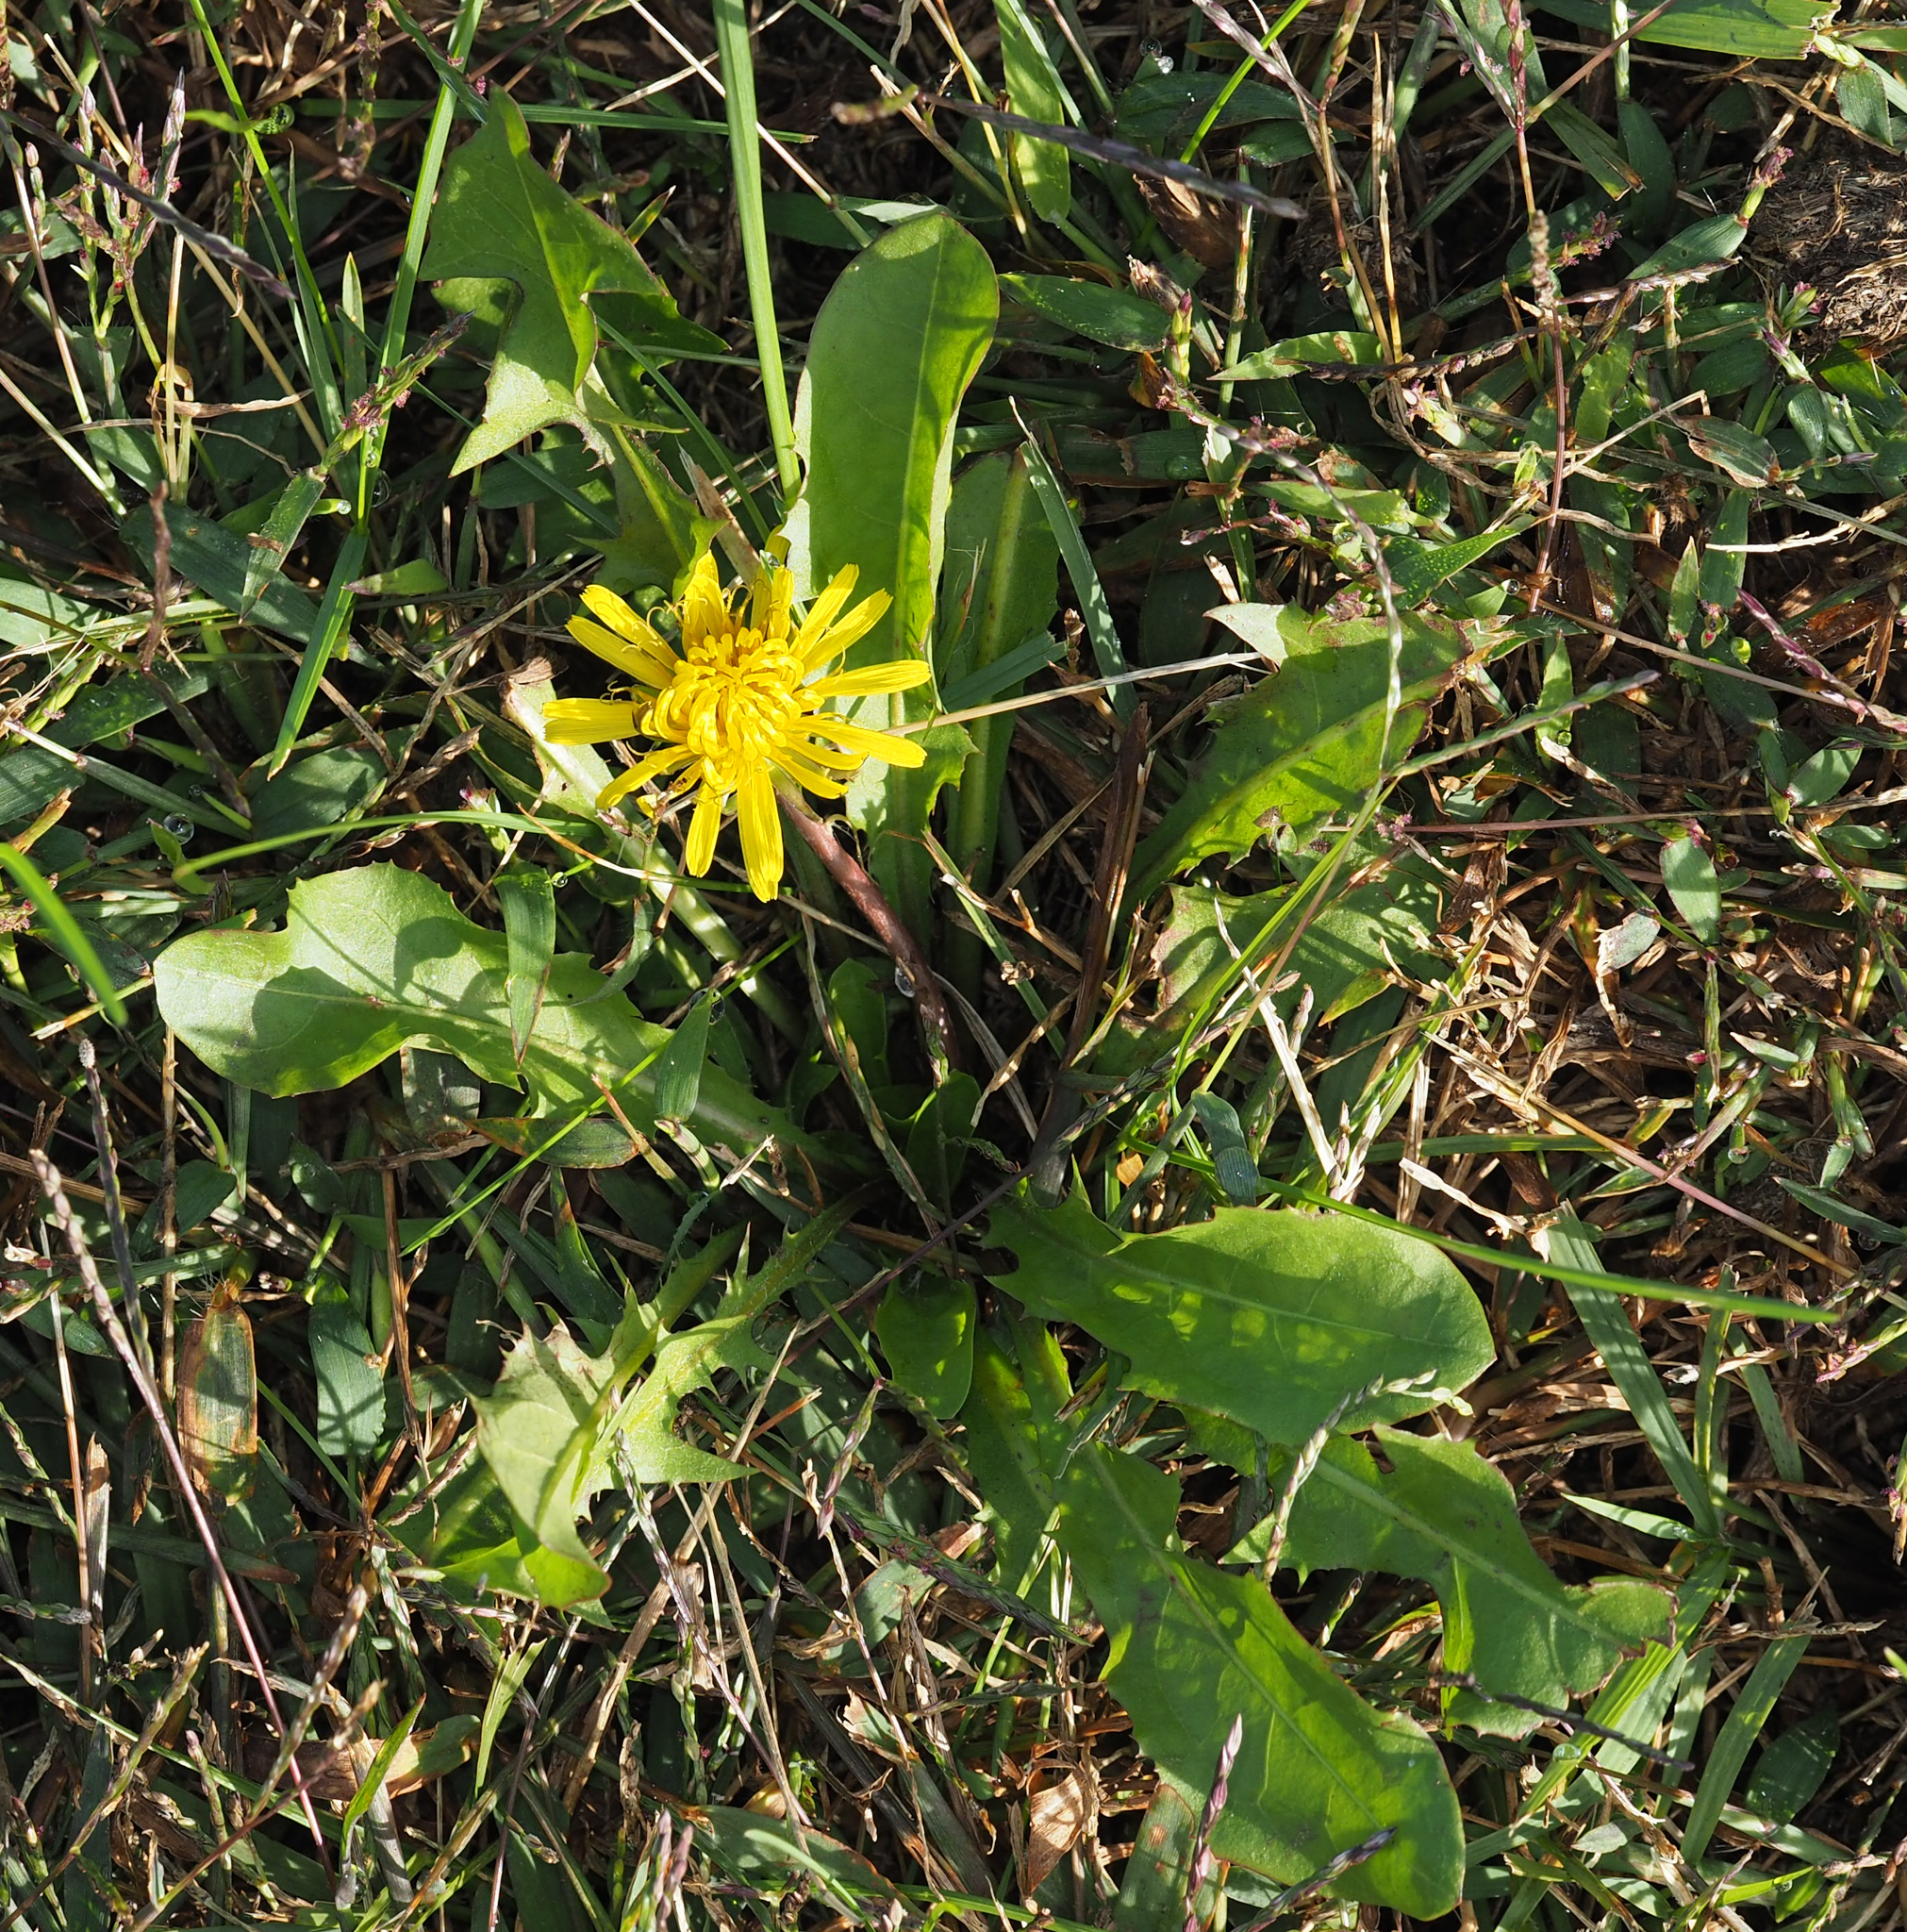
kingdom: Plantae
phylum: Tracheophyta
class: Magnoliopsida
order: Asterales
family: Asteraceae
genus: Taraxacum
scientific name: Taraxacum officinale
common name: Common dandelion
